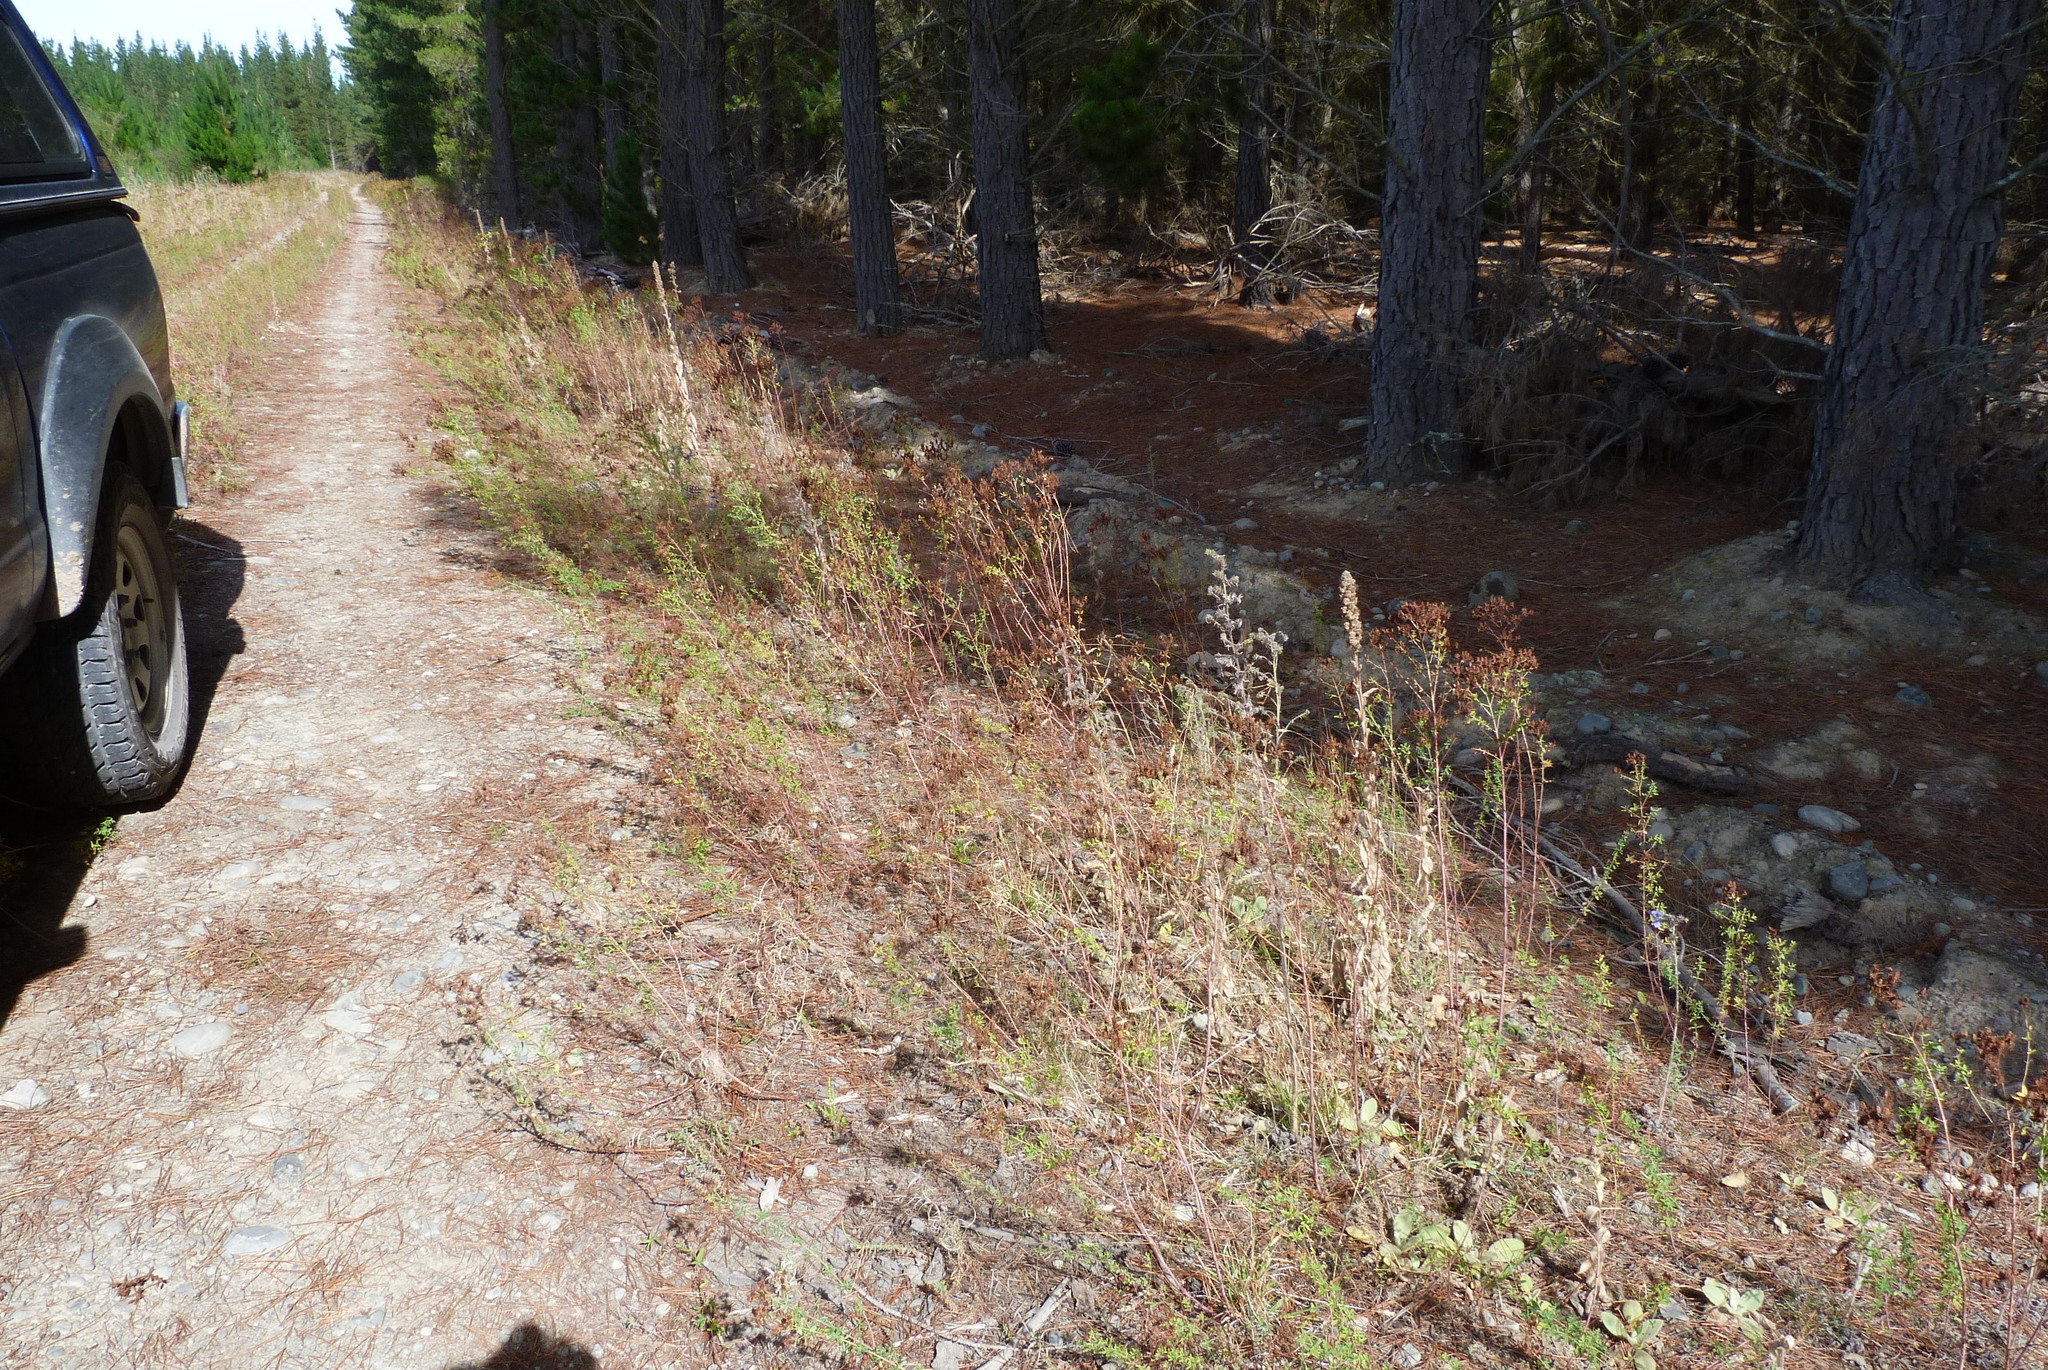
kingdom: Plantae
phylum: Tracheophyta
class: Magnoliopsida
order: Malpighiales
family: Hypericaceae
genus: Hypericum
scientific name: Hypericum perforatum
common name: Common st. johnswort
